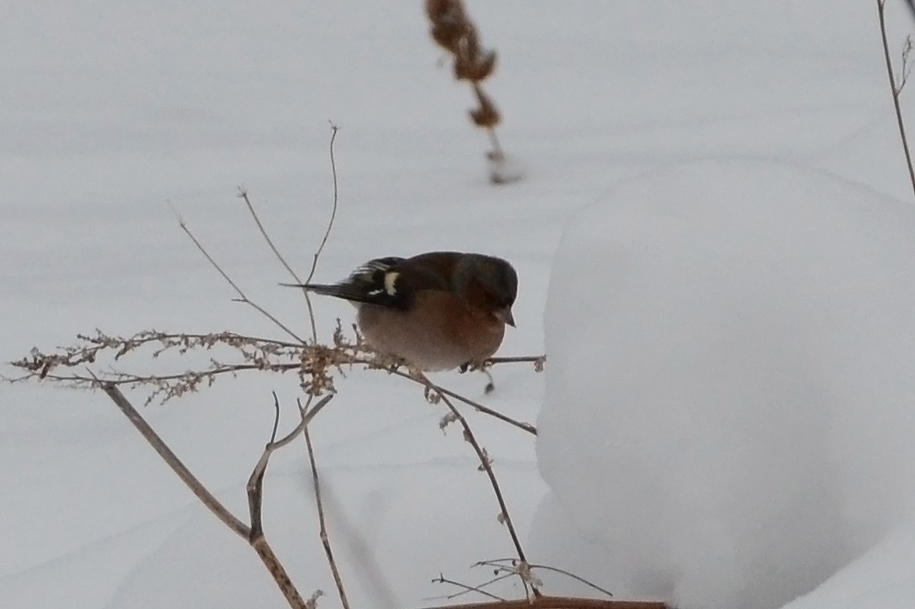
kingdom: Animalia
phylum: Chordata
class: Aves
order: Passeriformes
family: Fringillidae
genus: Fringilla
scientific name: Fringilla coelebs
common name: Common chaffinch
